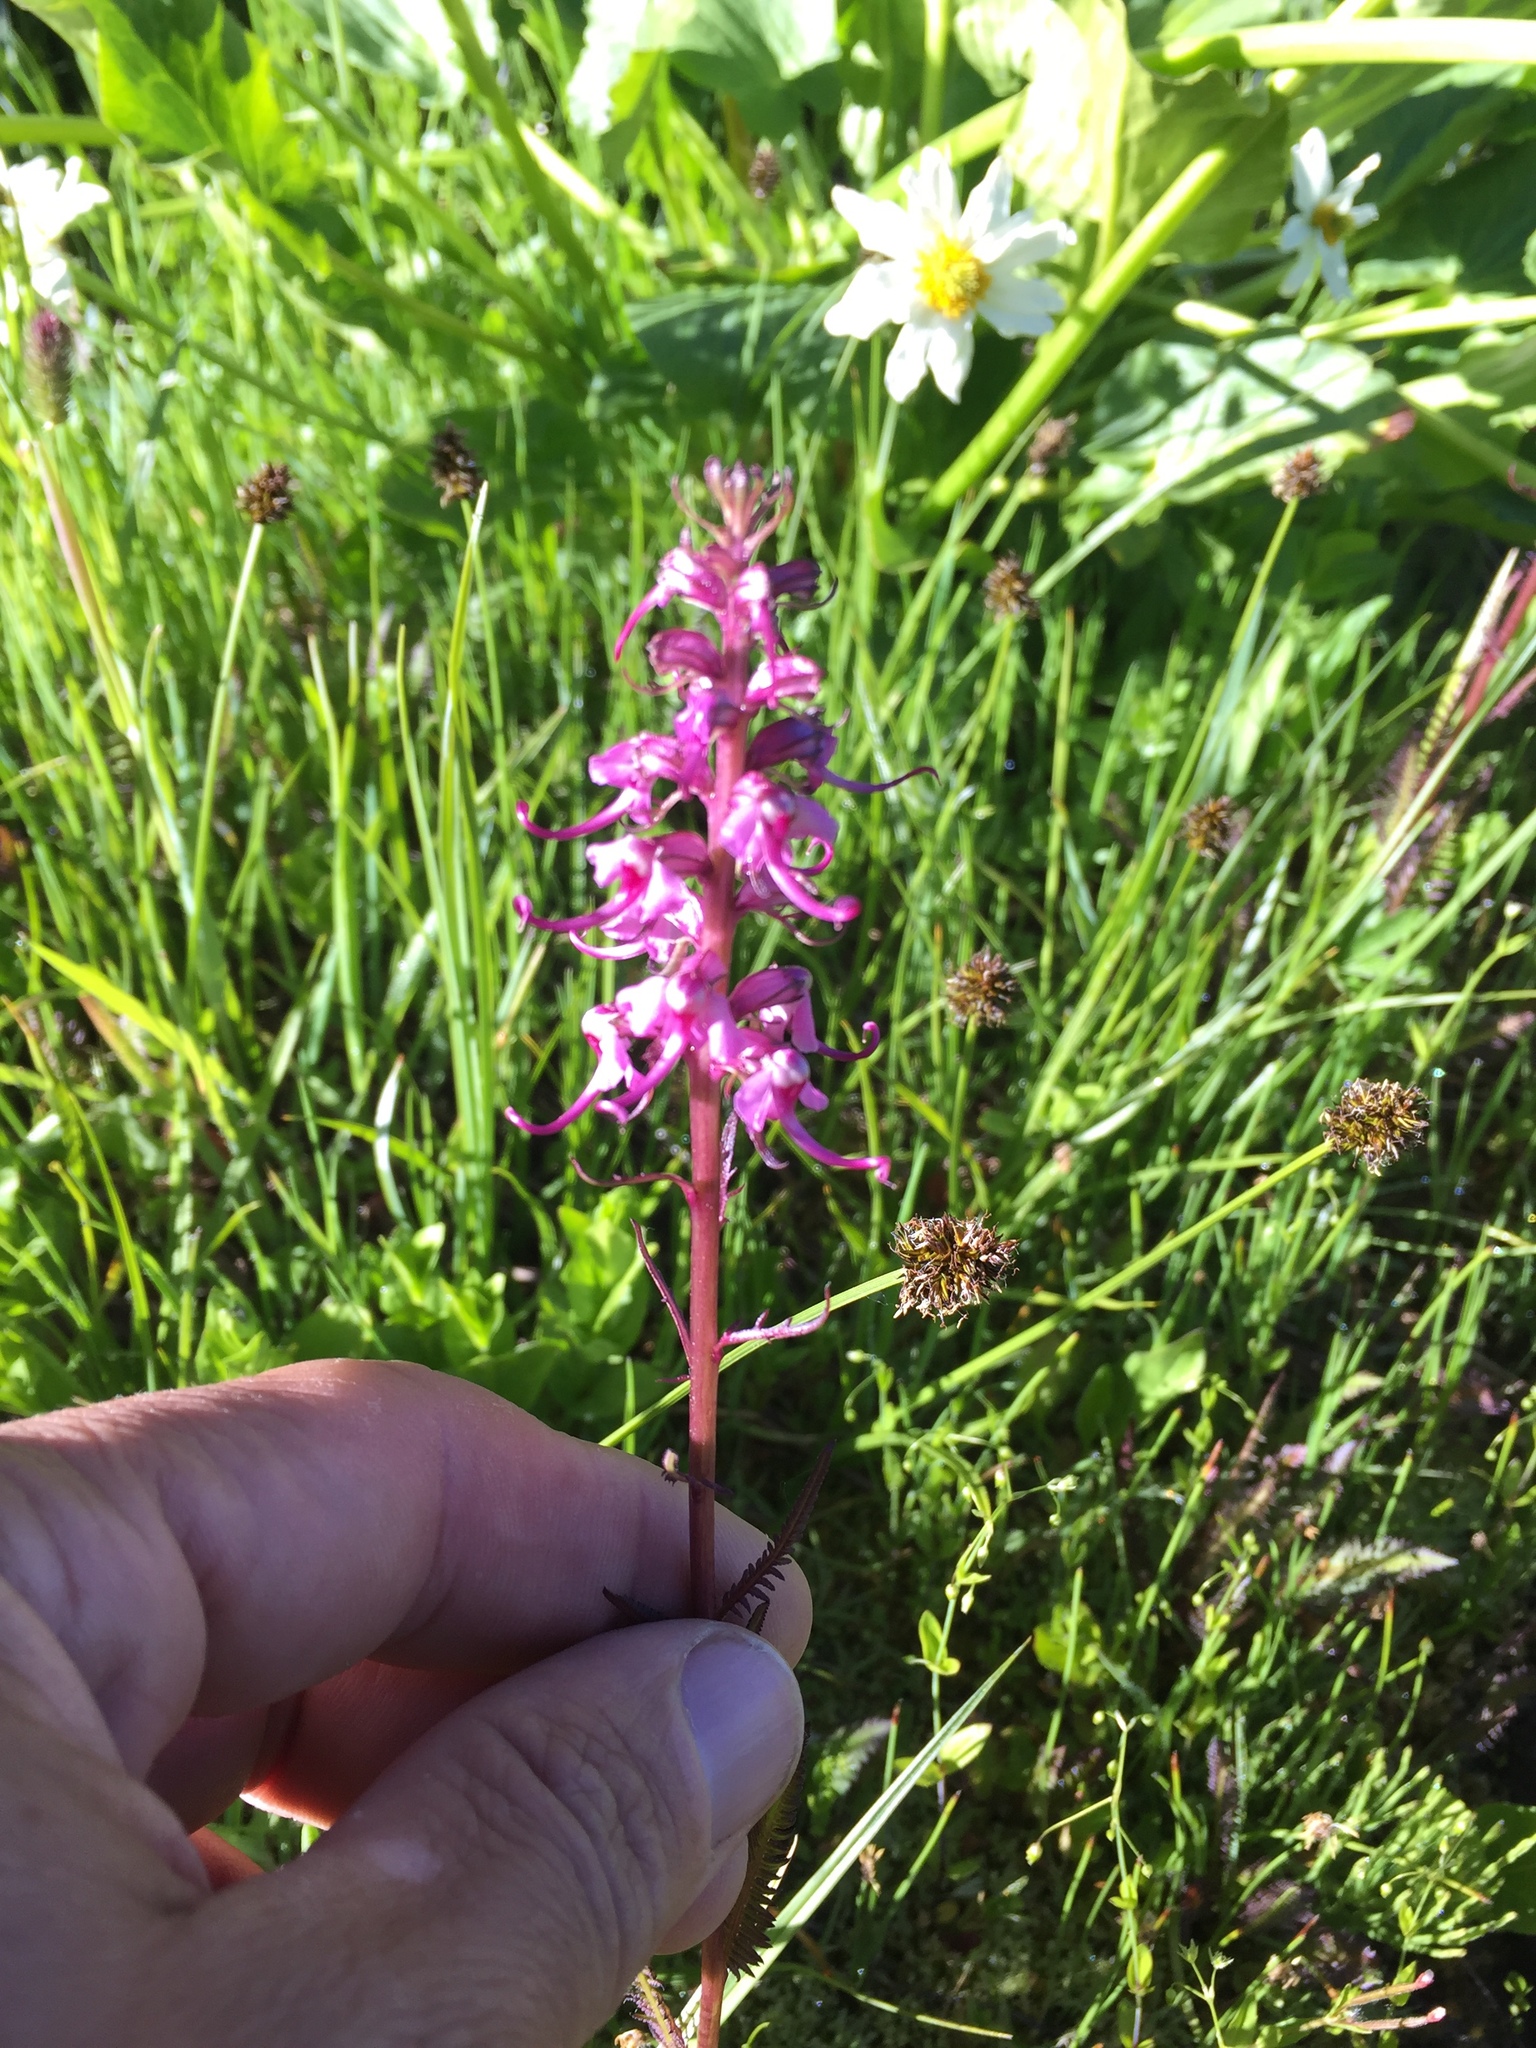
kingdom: Plantae
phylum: Tracheophyta
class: Magnoliopsida
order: Lamiales
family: Orobanchaceae
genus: Pedicularis
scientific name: Pedicularis groenlandica
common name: Elephant's-head
